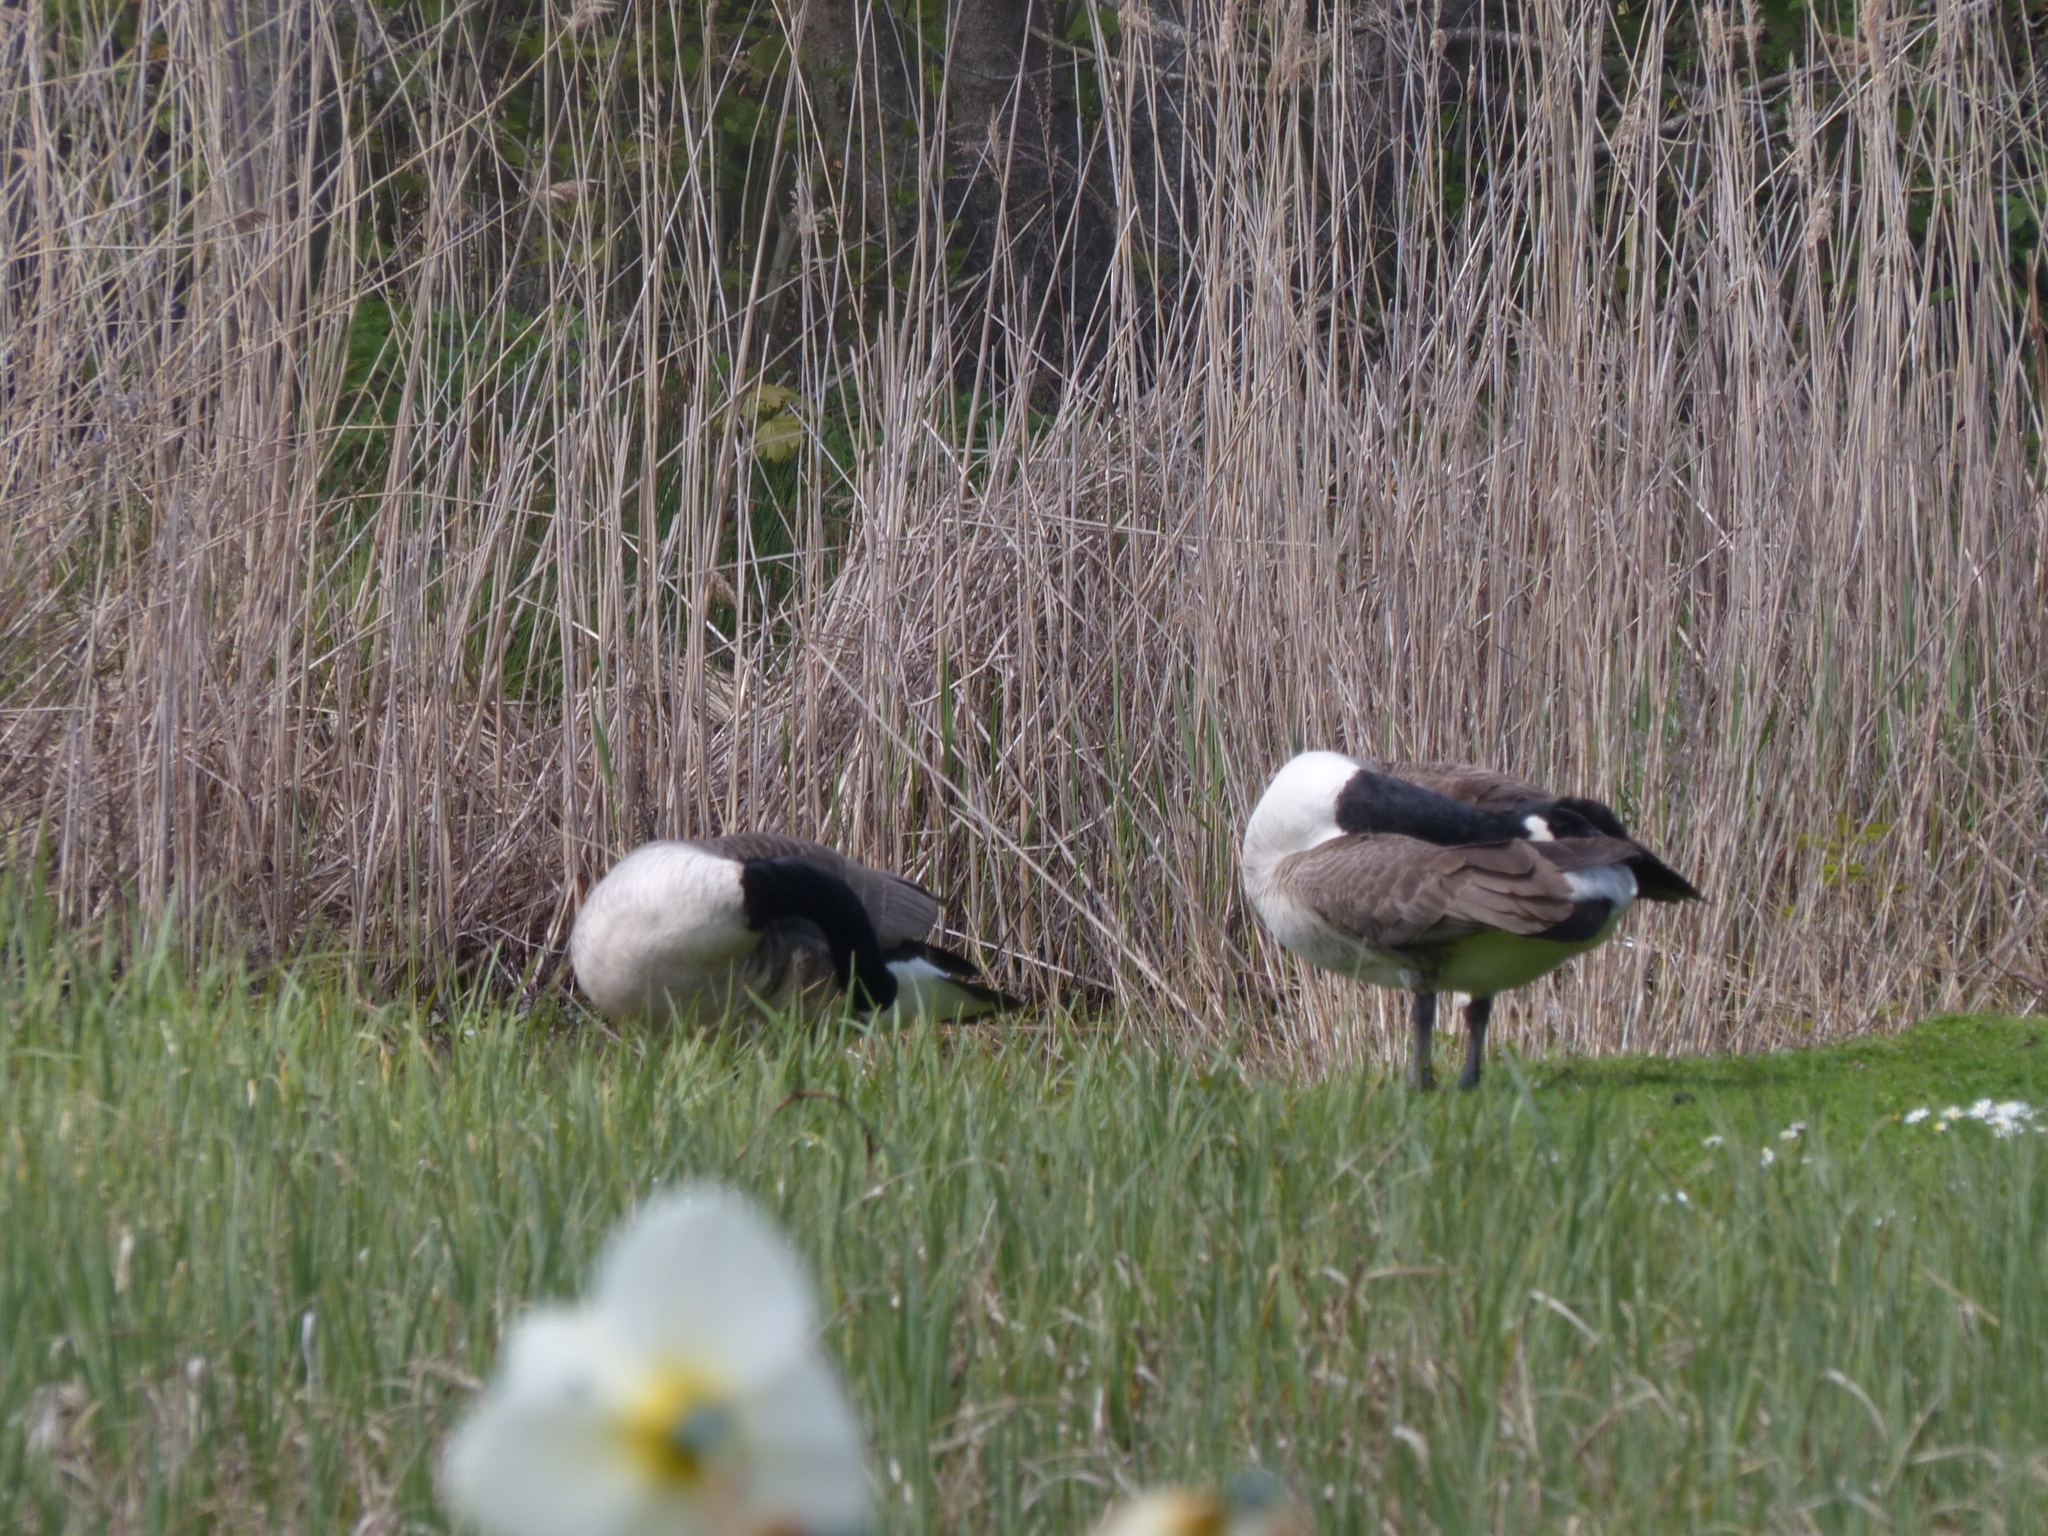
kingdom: Animalia
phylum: Chordata
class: Aves
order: Anseriformes
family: Anatidae
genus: Branta
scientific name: Branta canadensis
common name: Canada goose
